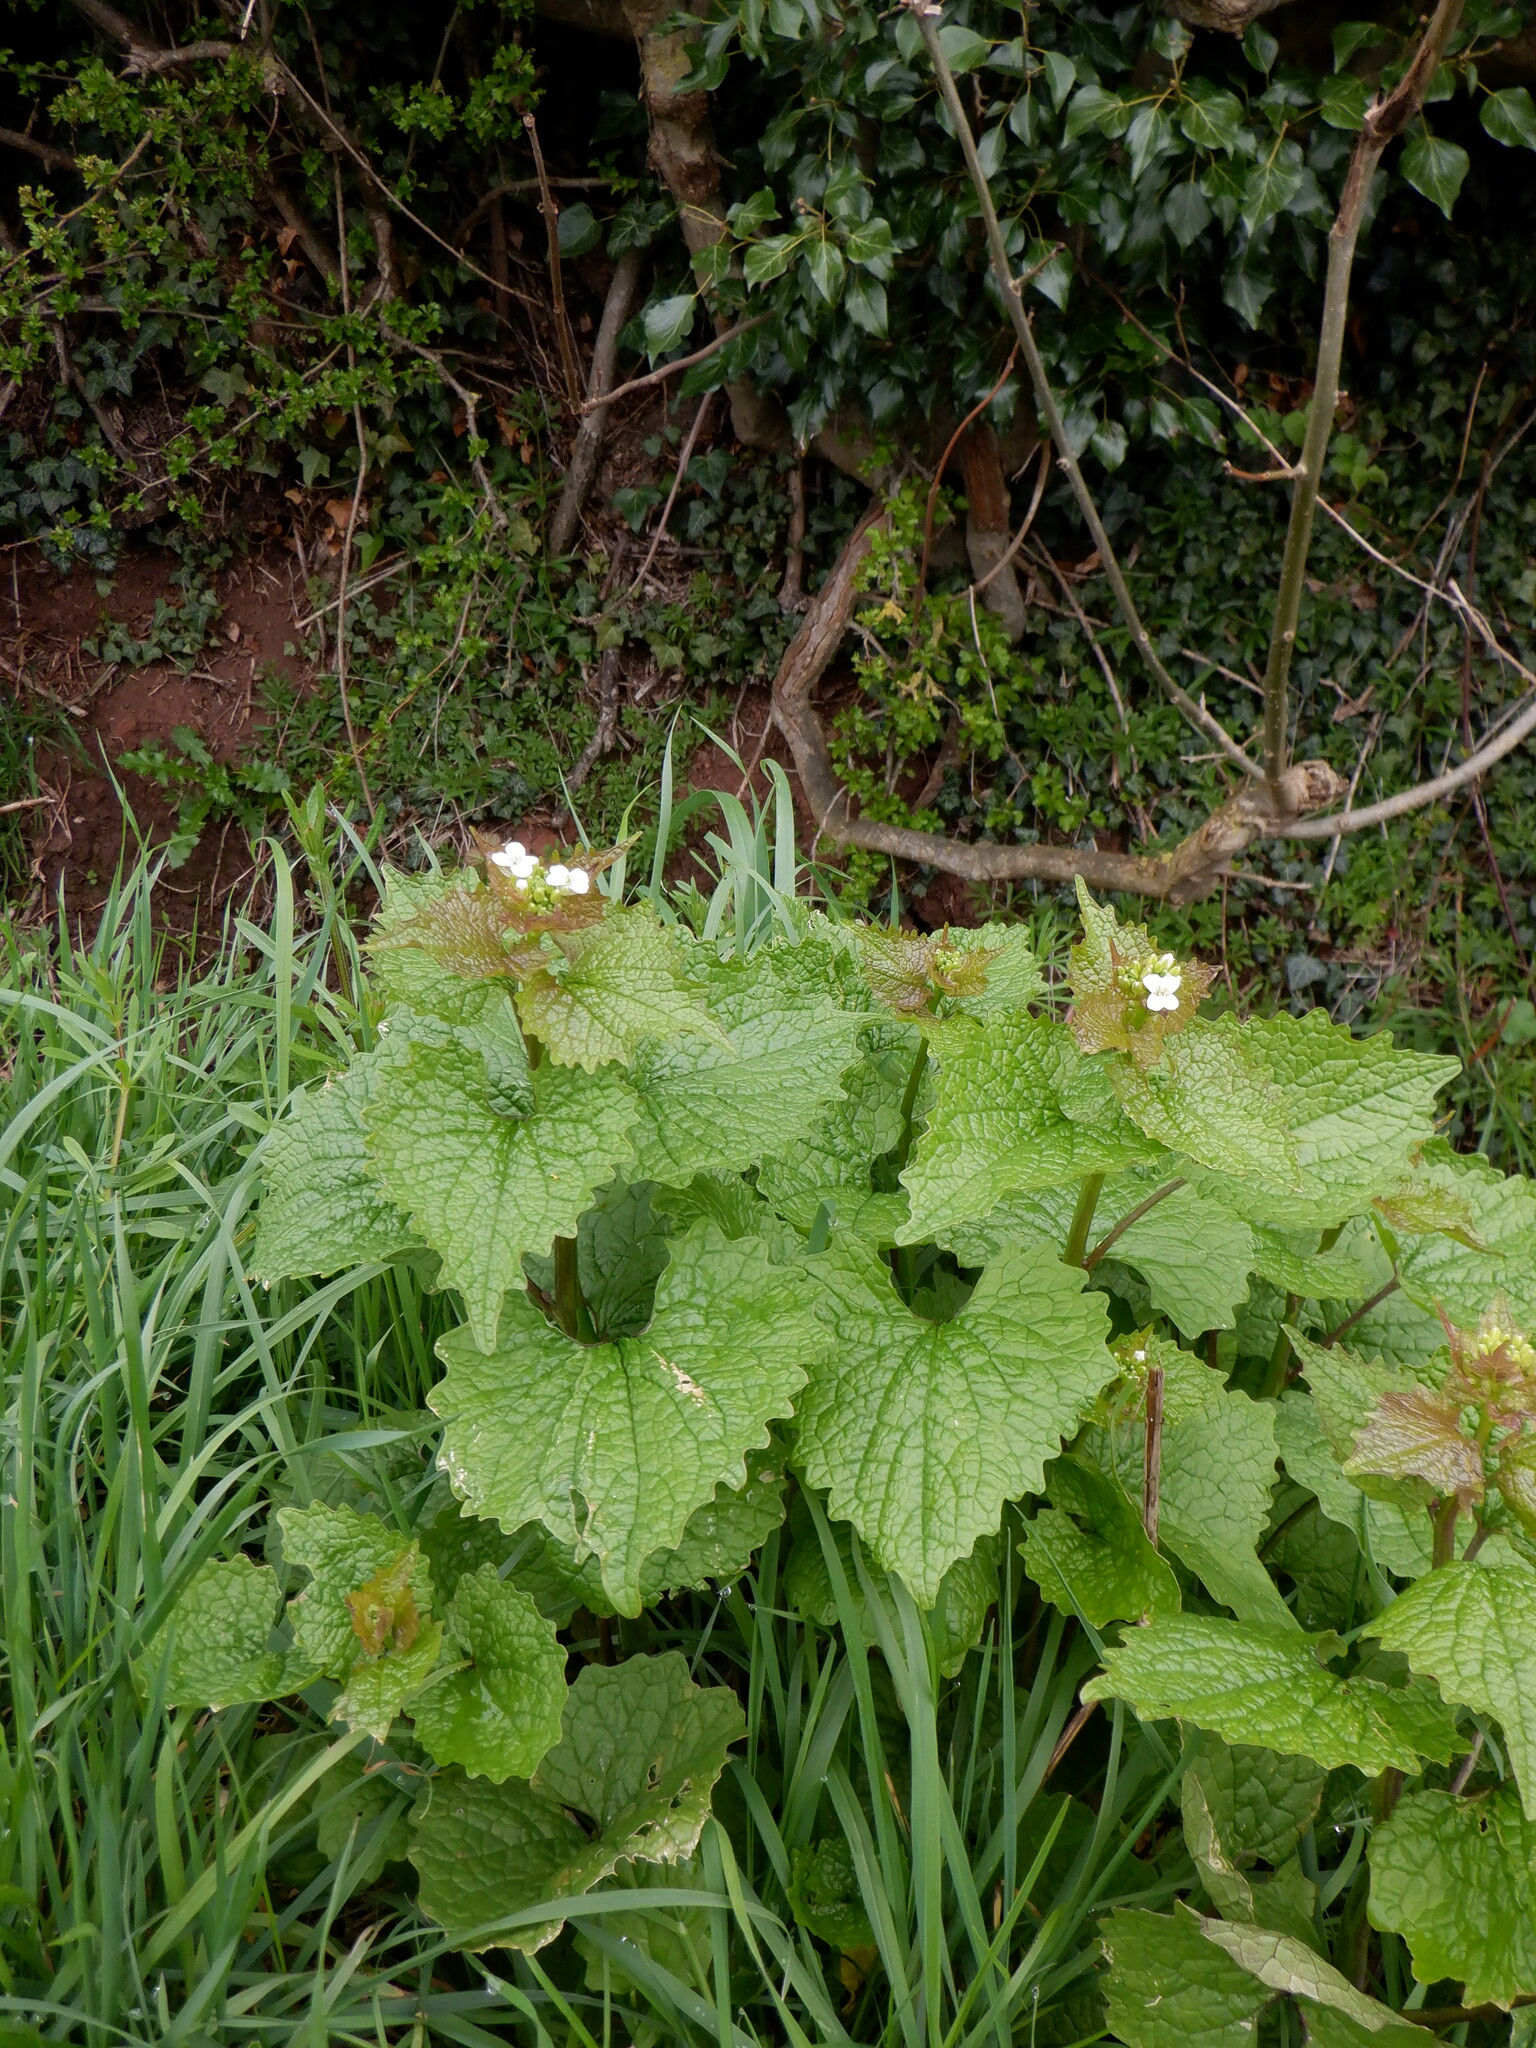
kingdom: Plantae
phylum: Tracheophyta
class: Magnoliopsida
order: Brassicales
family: Brassicaceae
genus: Alliaria
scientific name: Alliaria petiolata
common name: Garlic mustard
